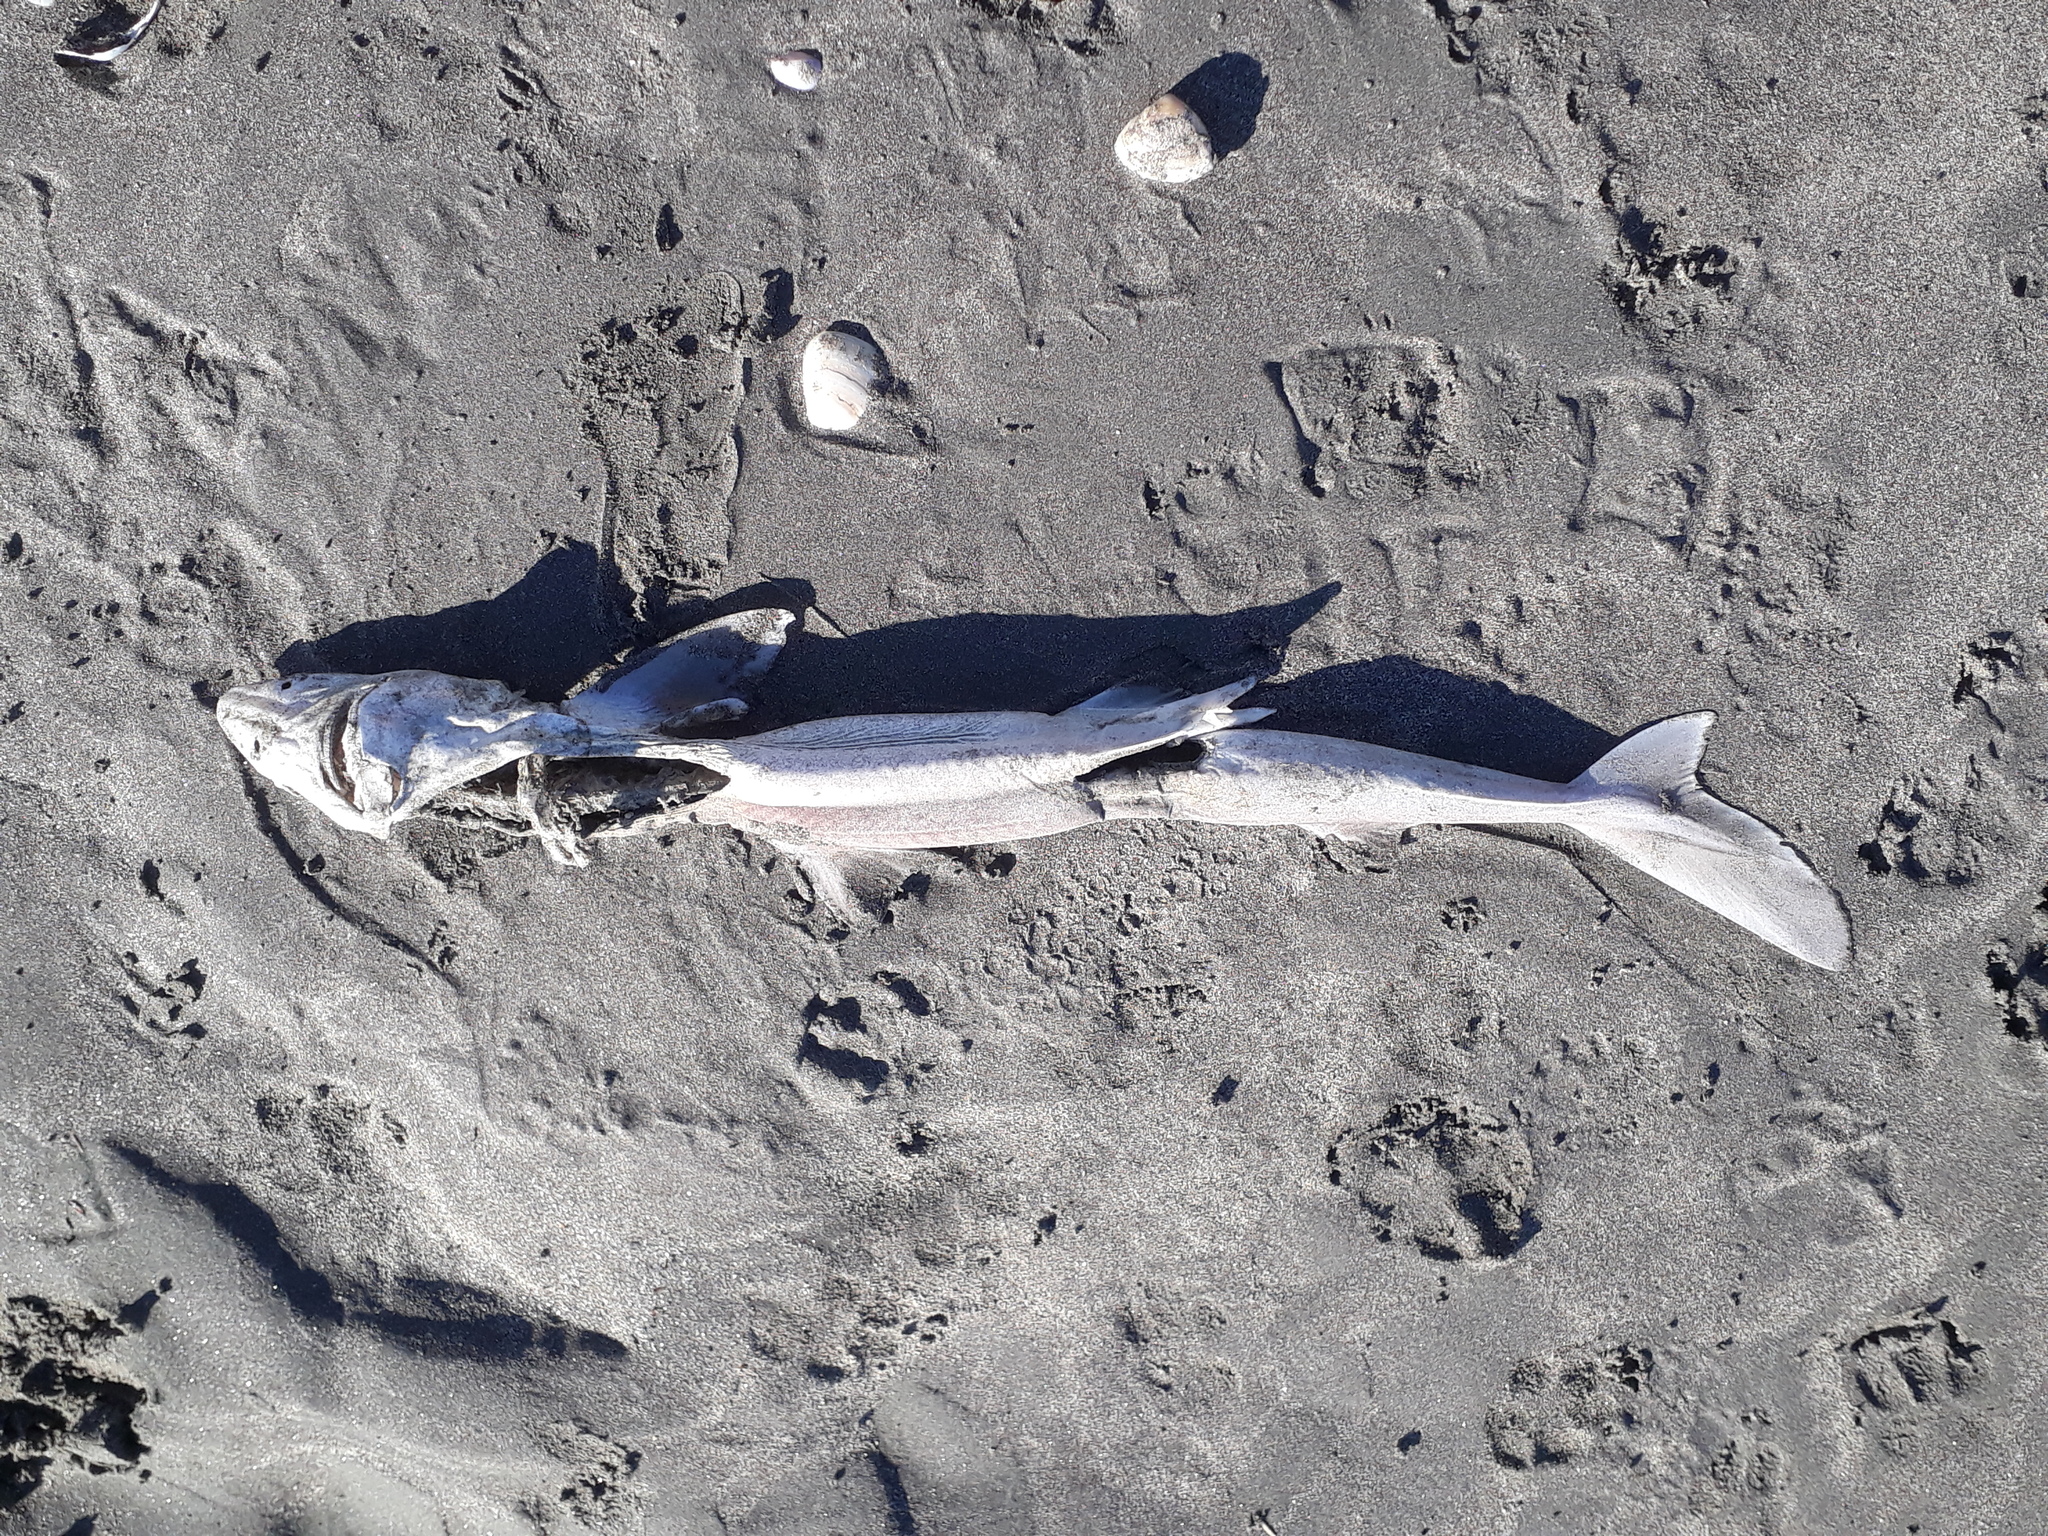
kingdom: Animalia
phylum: Chordata
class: Elasmobranchii
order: Squaliformes
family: Squalidae
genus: Squalus
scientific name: Squalus acanthias
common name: Spurdog
